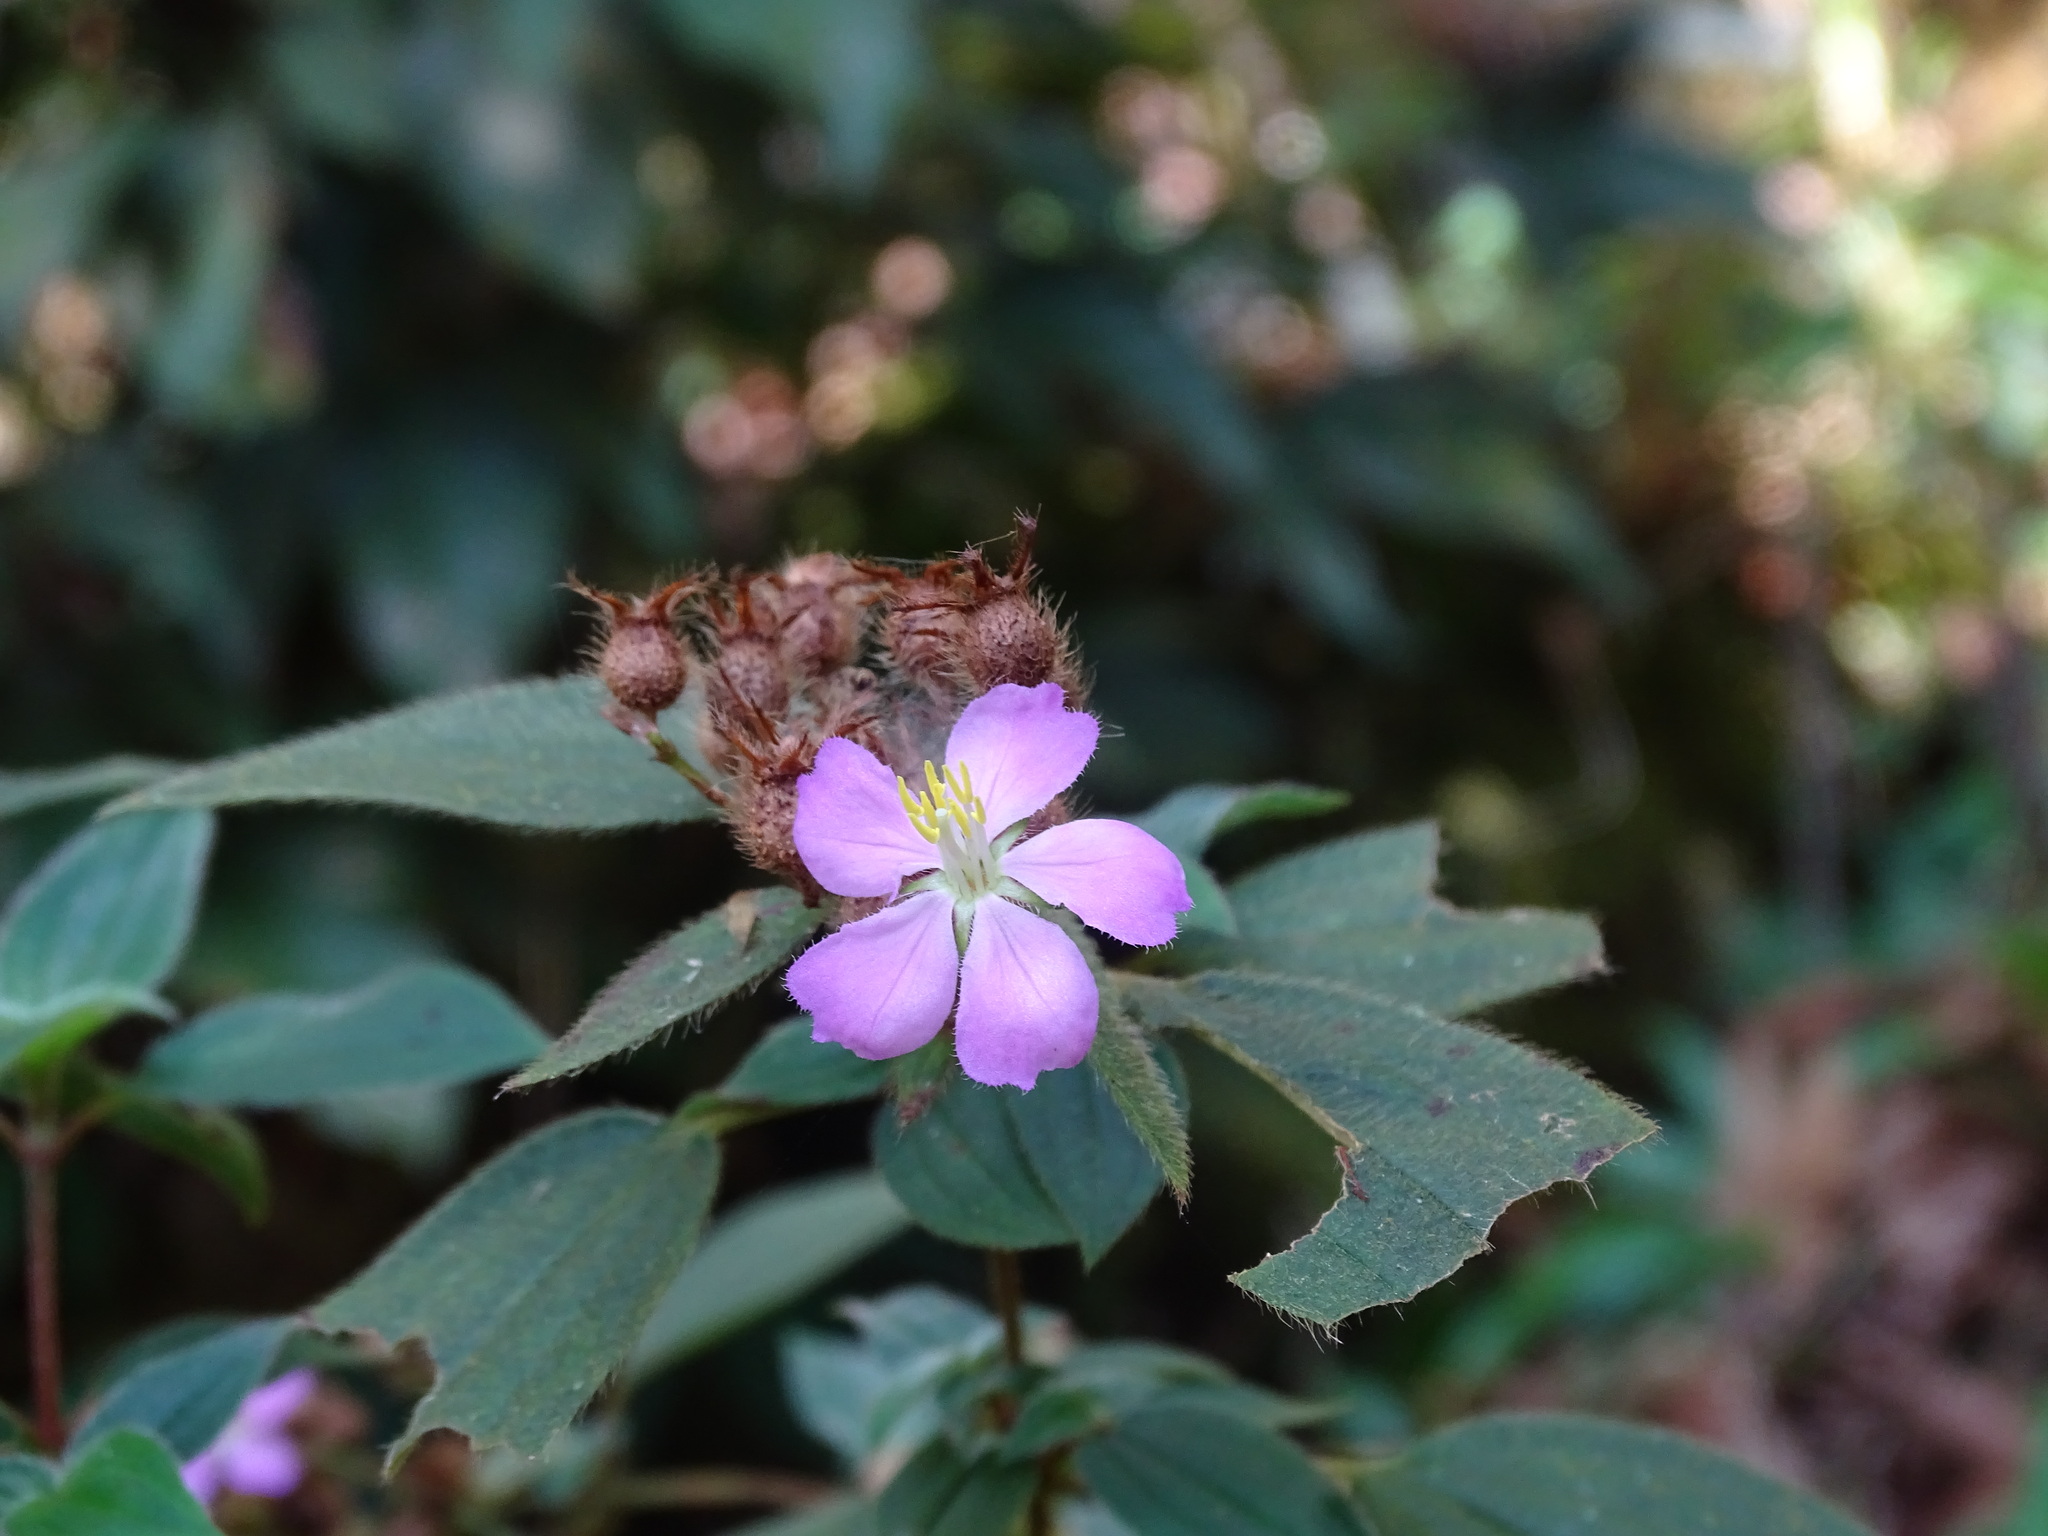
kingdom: Plantae
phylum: Tracheophyta
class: Magnoliopsida
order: Myrtales
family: Melastomataceae
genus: Chaetogastra
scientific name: Chaetogastra naudiniana
